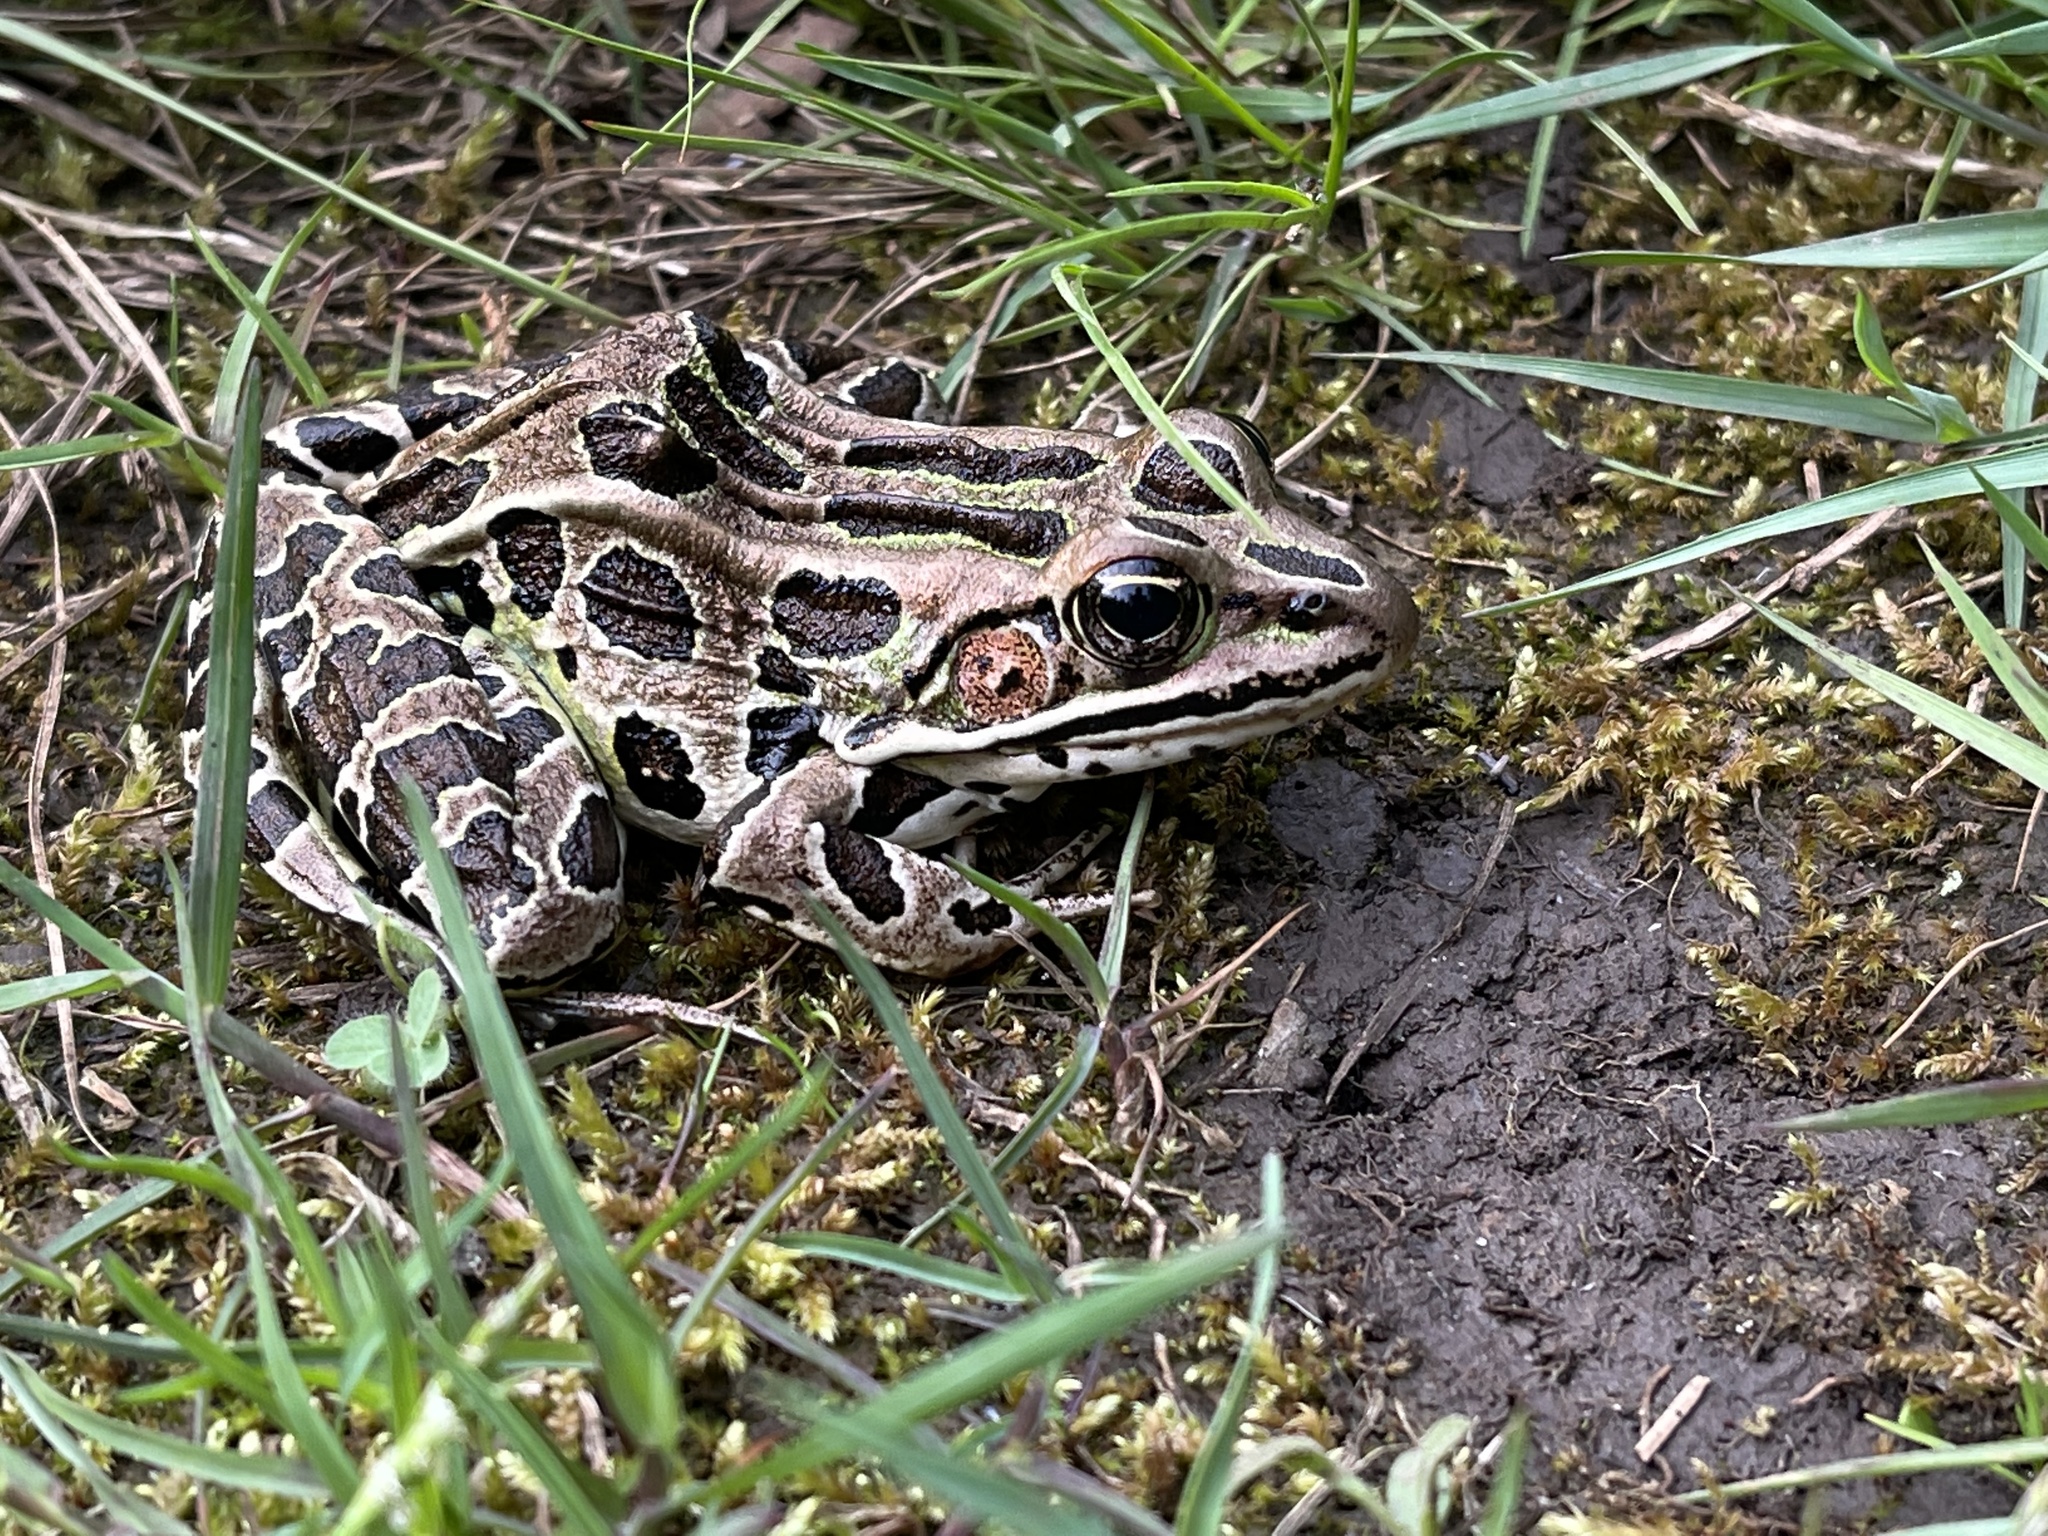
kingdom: Animalia
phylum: Chordata
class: Amphibia
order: Anura
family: Ranidae
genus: Lithobates
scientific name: Lithobates pipiens
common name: Northern leopard frog
